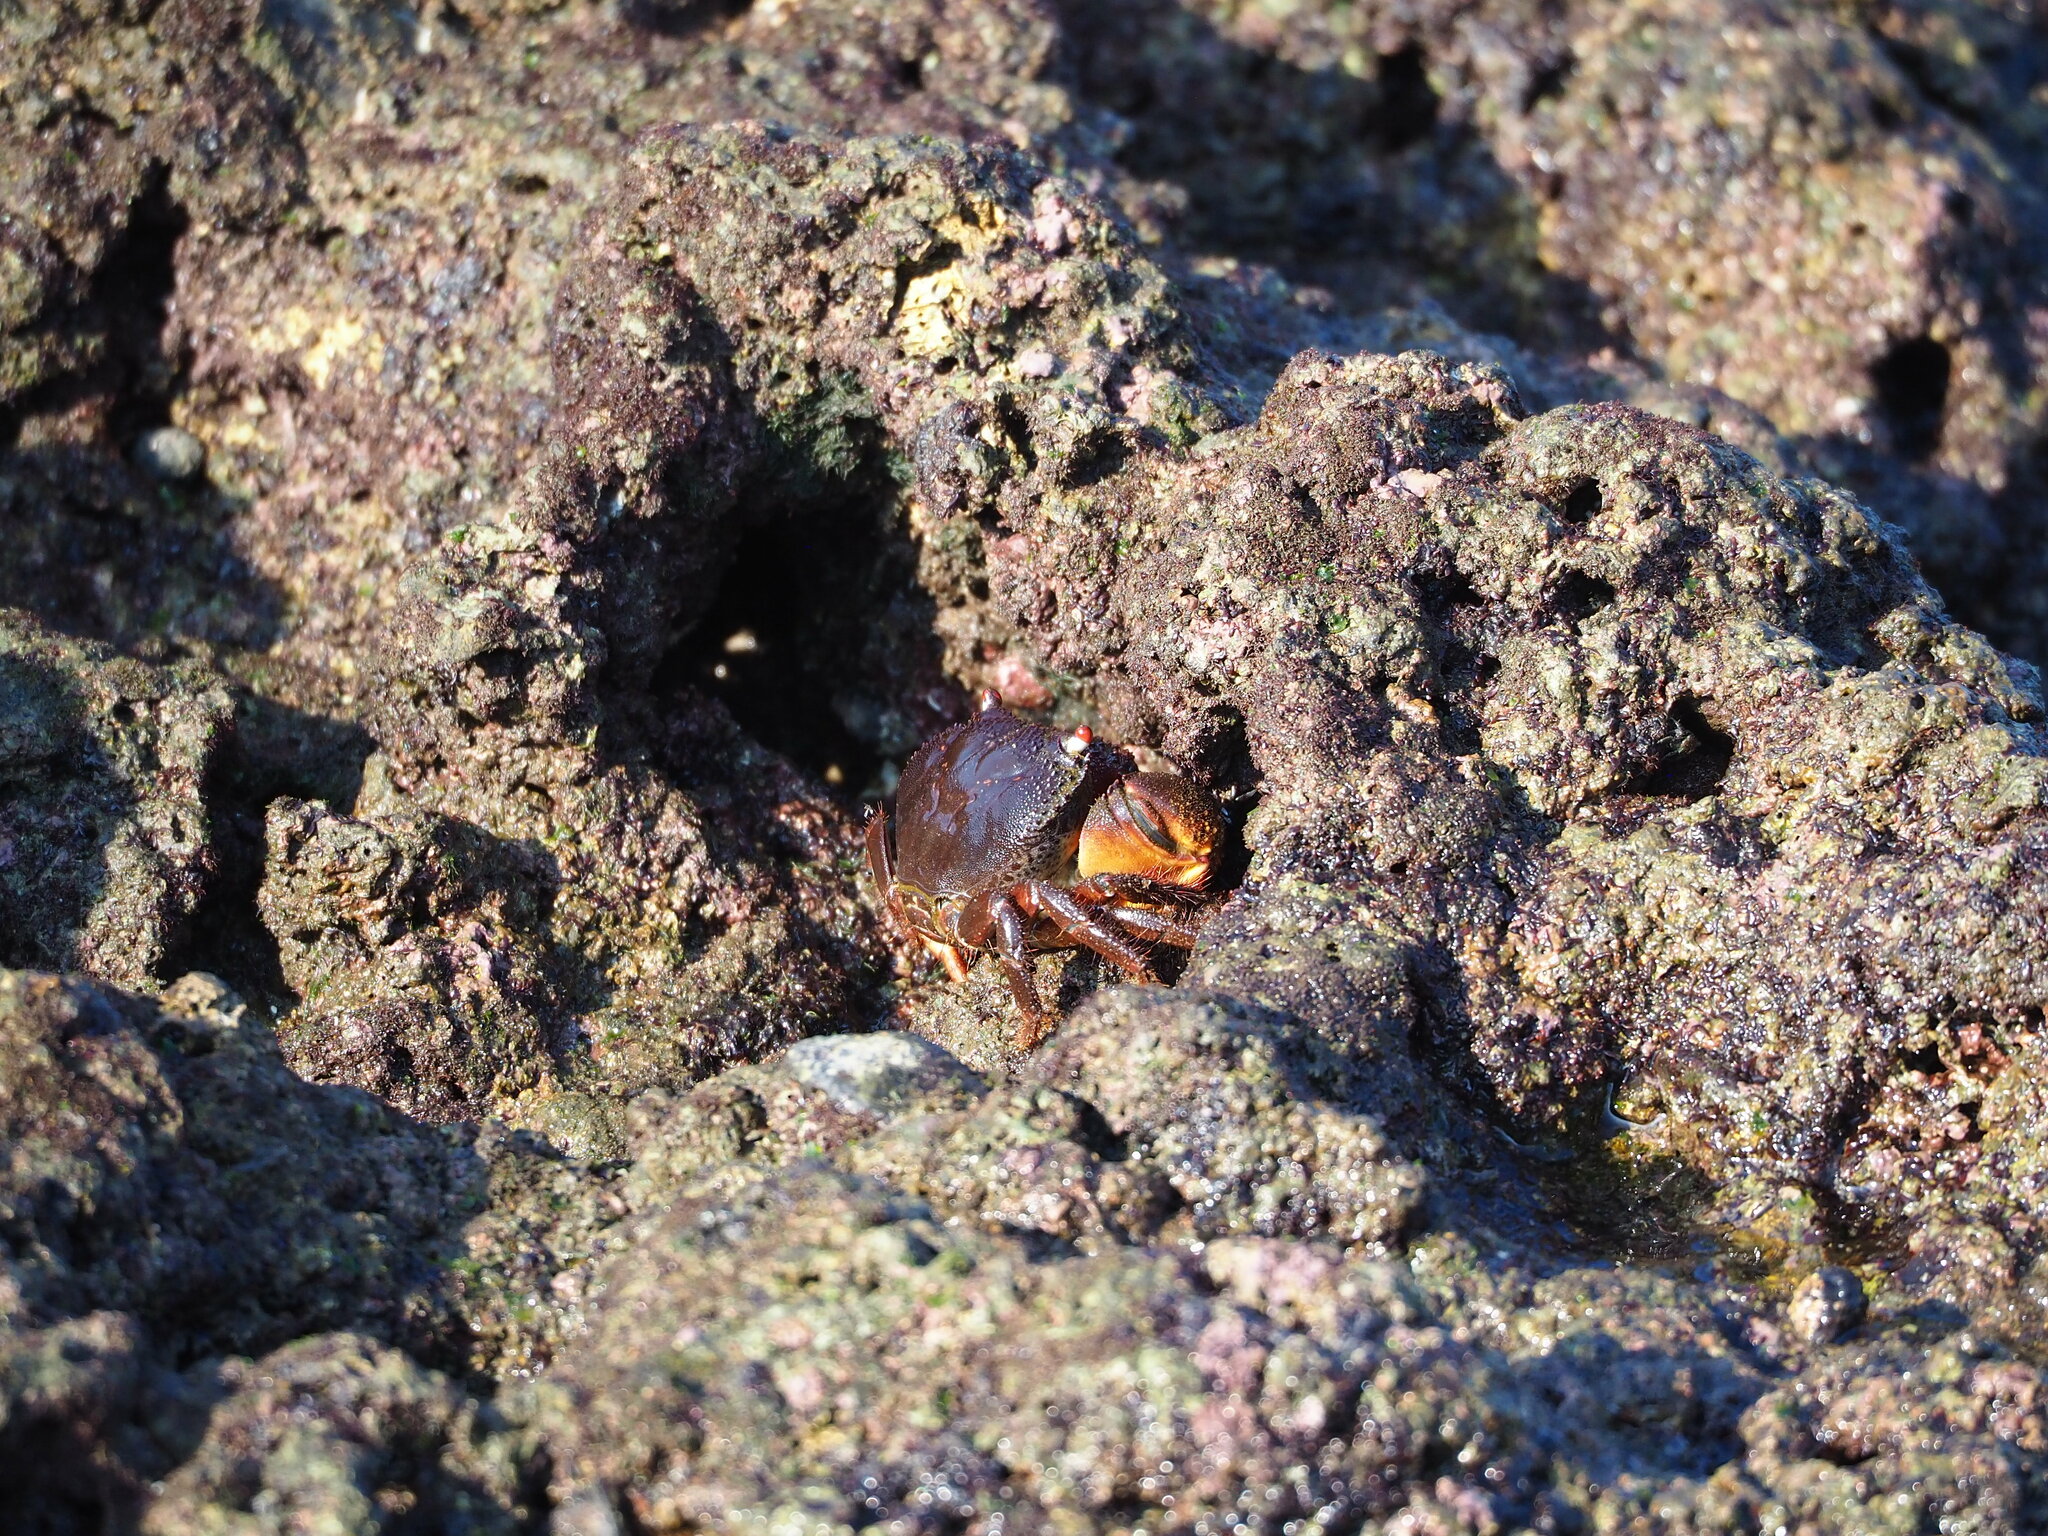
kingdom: Animalia
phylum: Arthropoda
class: Malacostraca
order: Decapoda
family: Eriphiidae
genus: Eriphia
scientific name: Eriphia ferox
